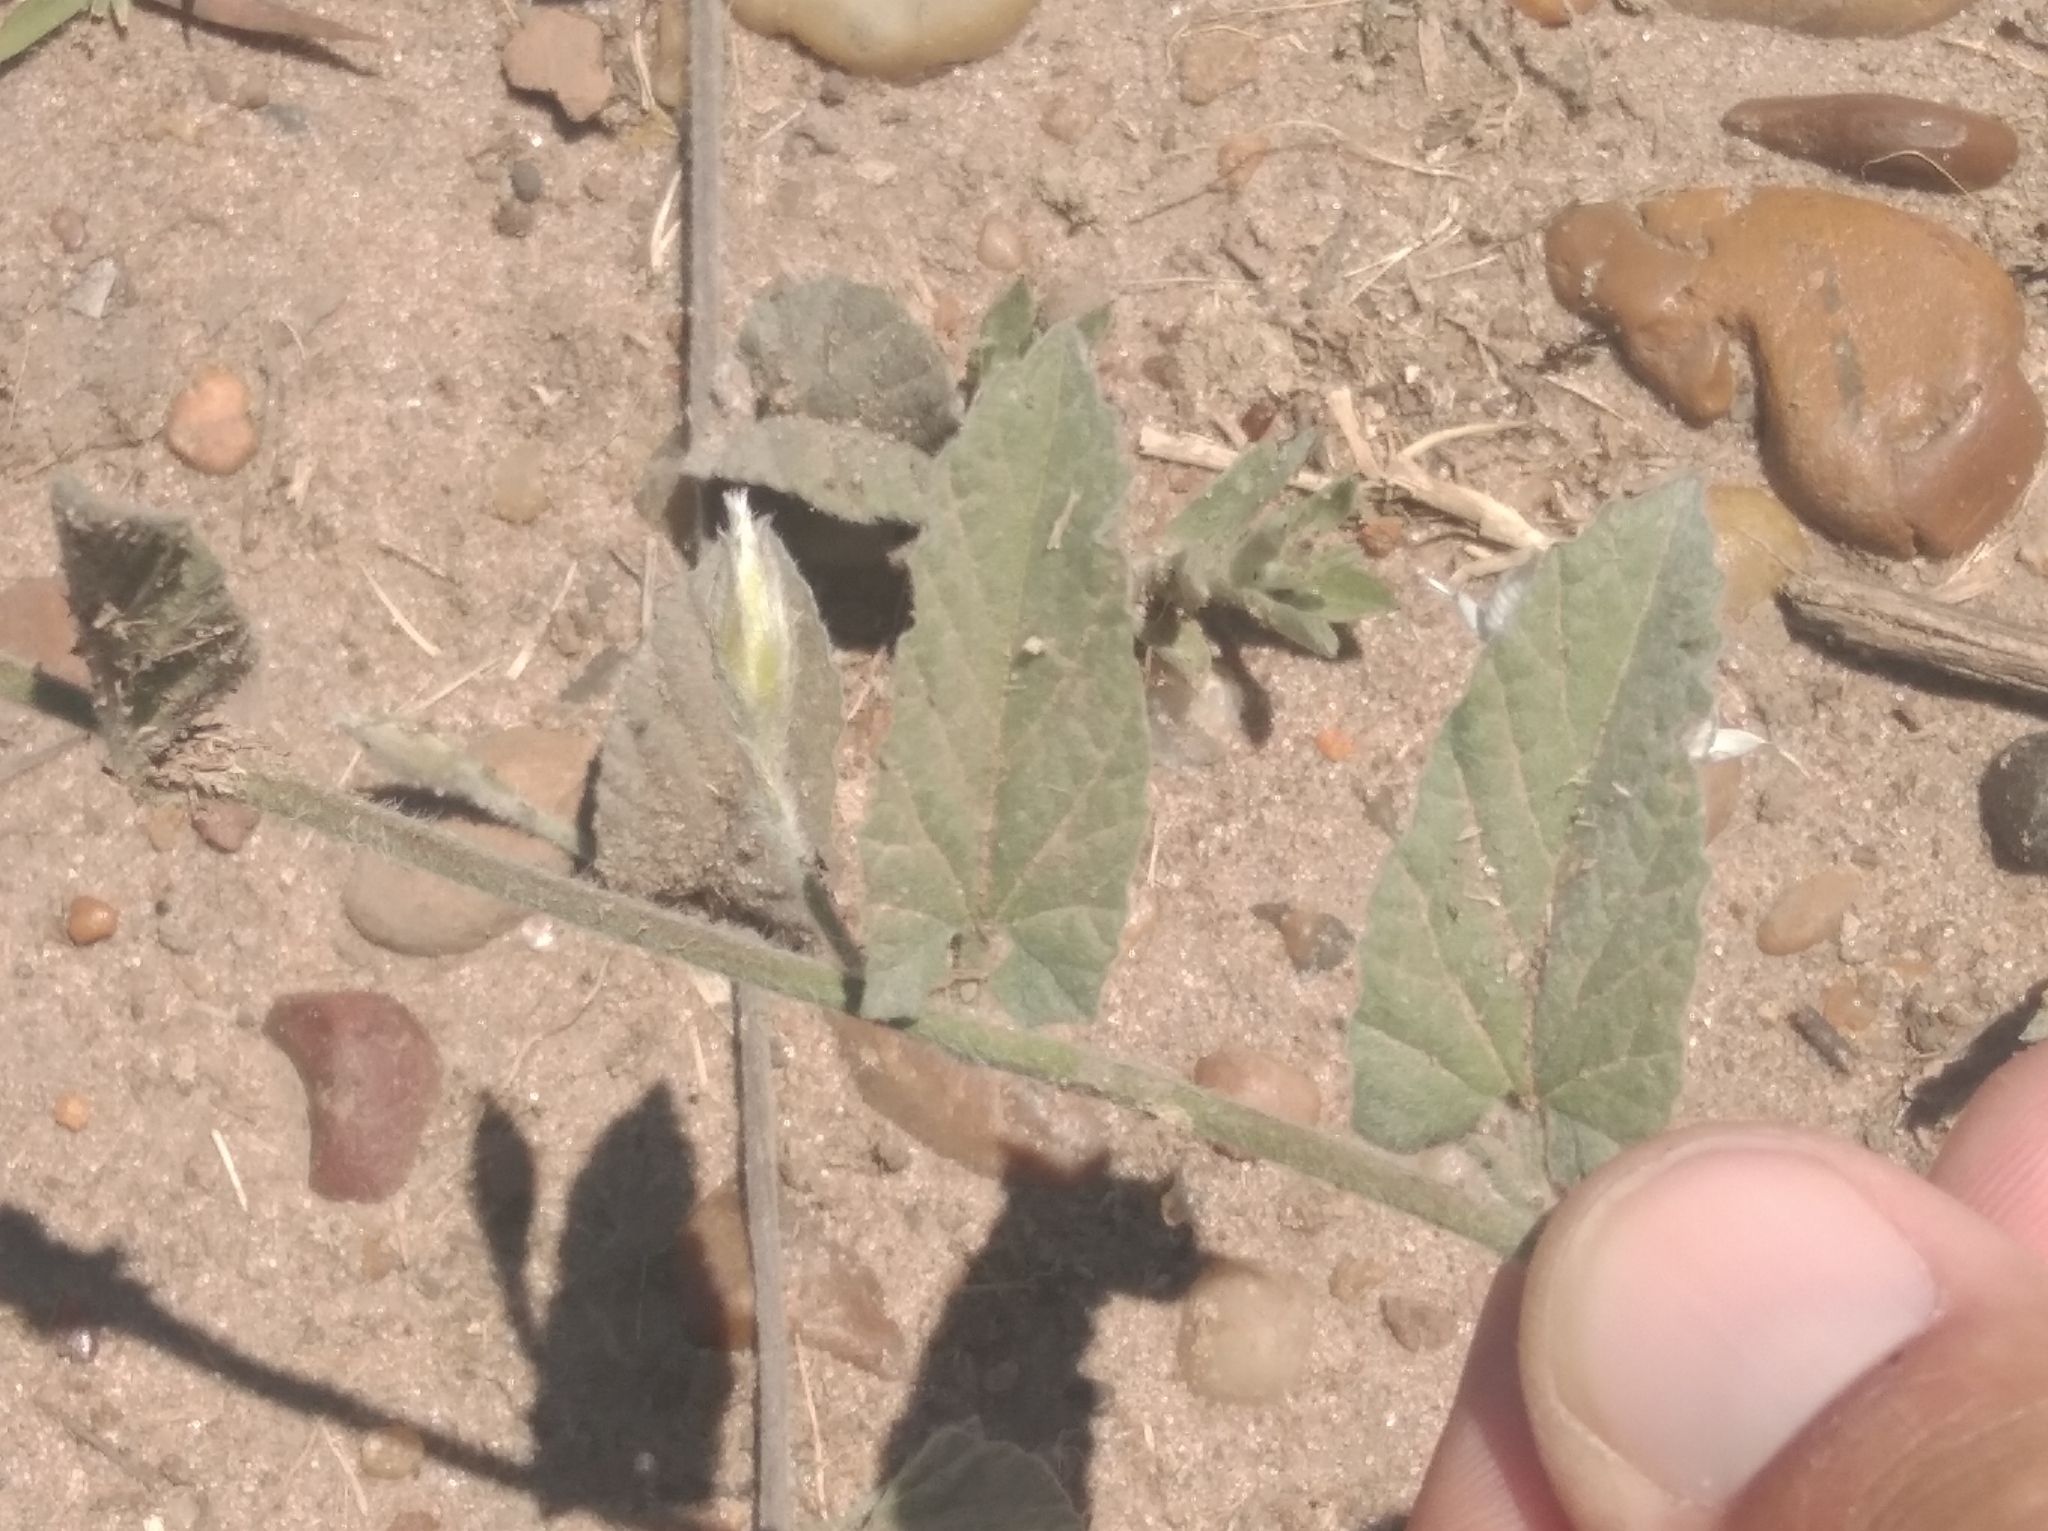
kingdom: Plantae
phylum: Tracheophyta
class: Magnoliopsida
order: Solanales
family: Convolvulaceae
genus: Convolvulus
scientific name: Convolvulus hermanniae
